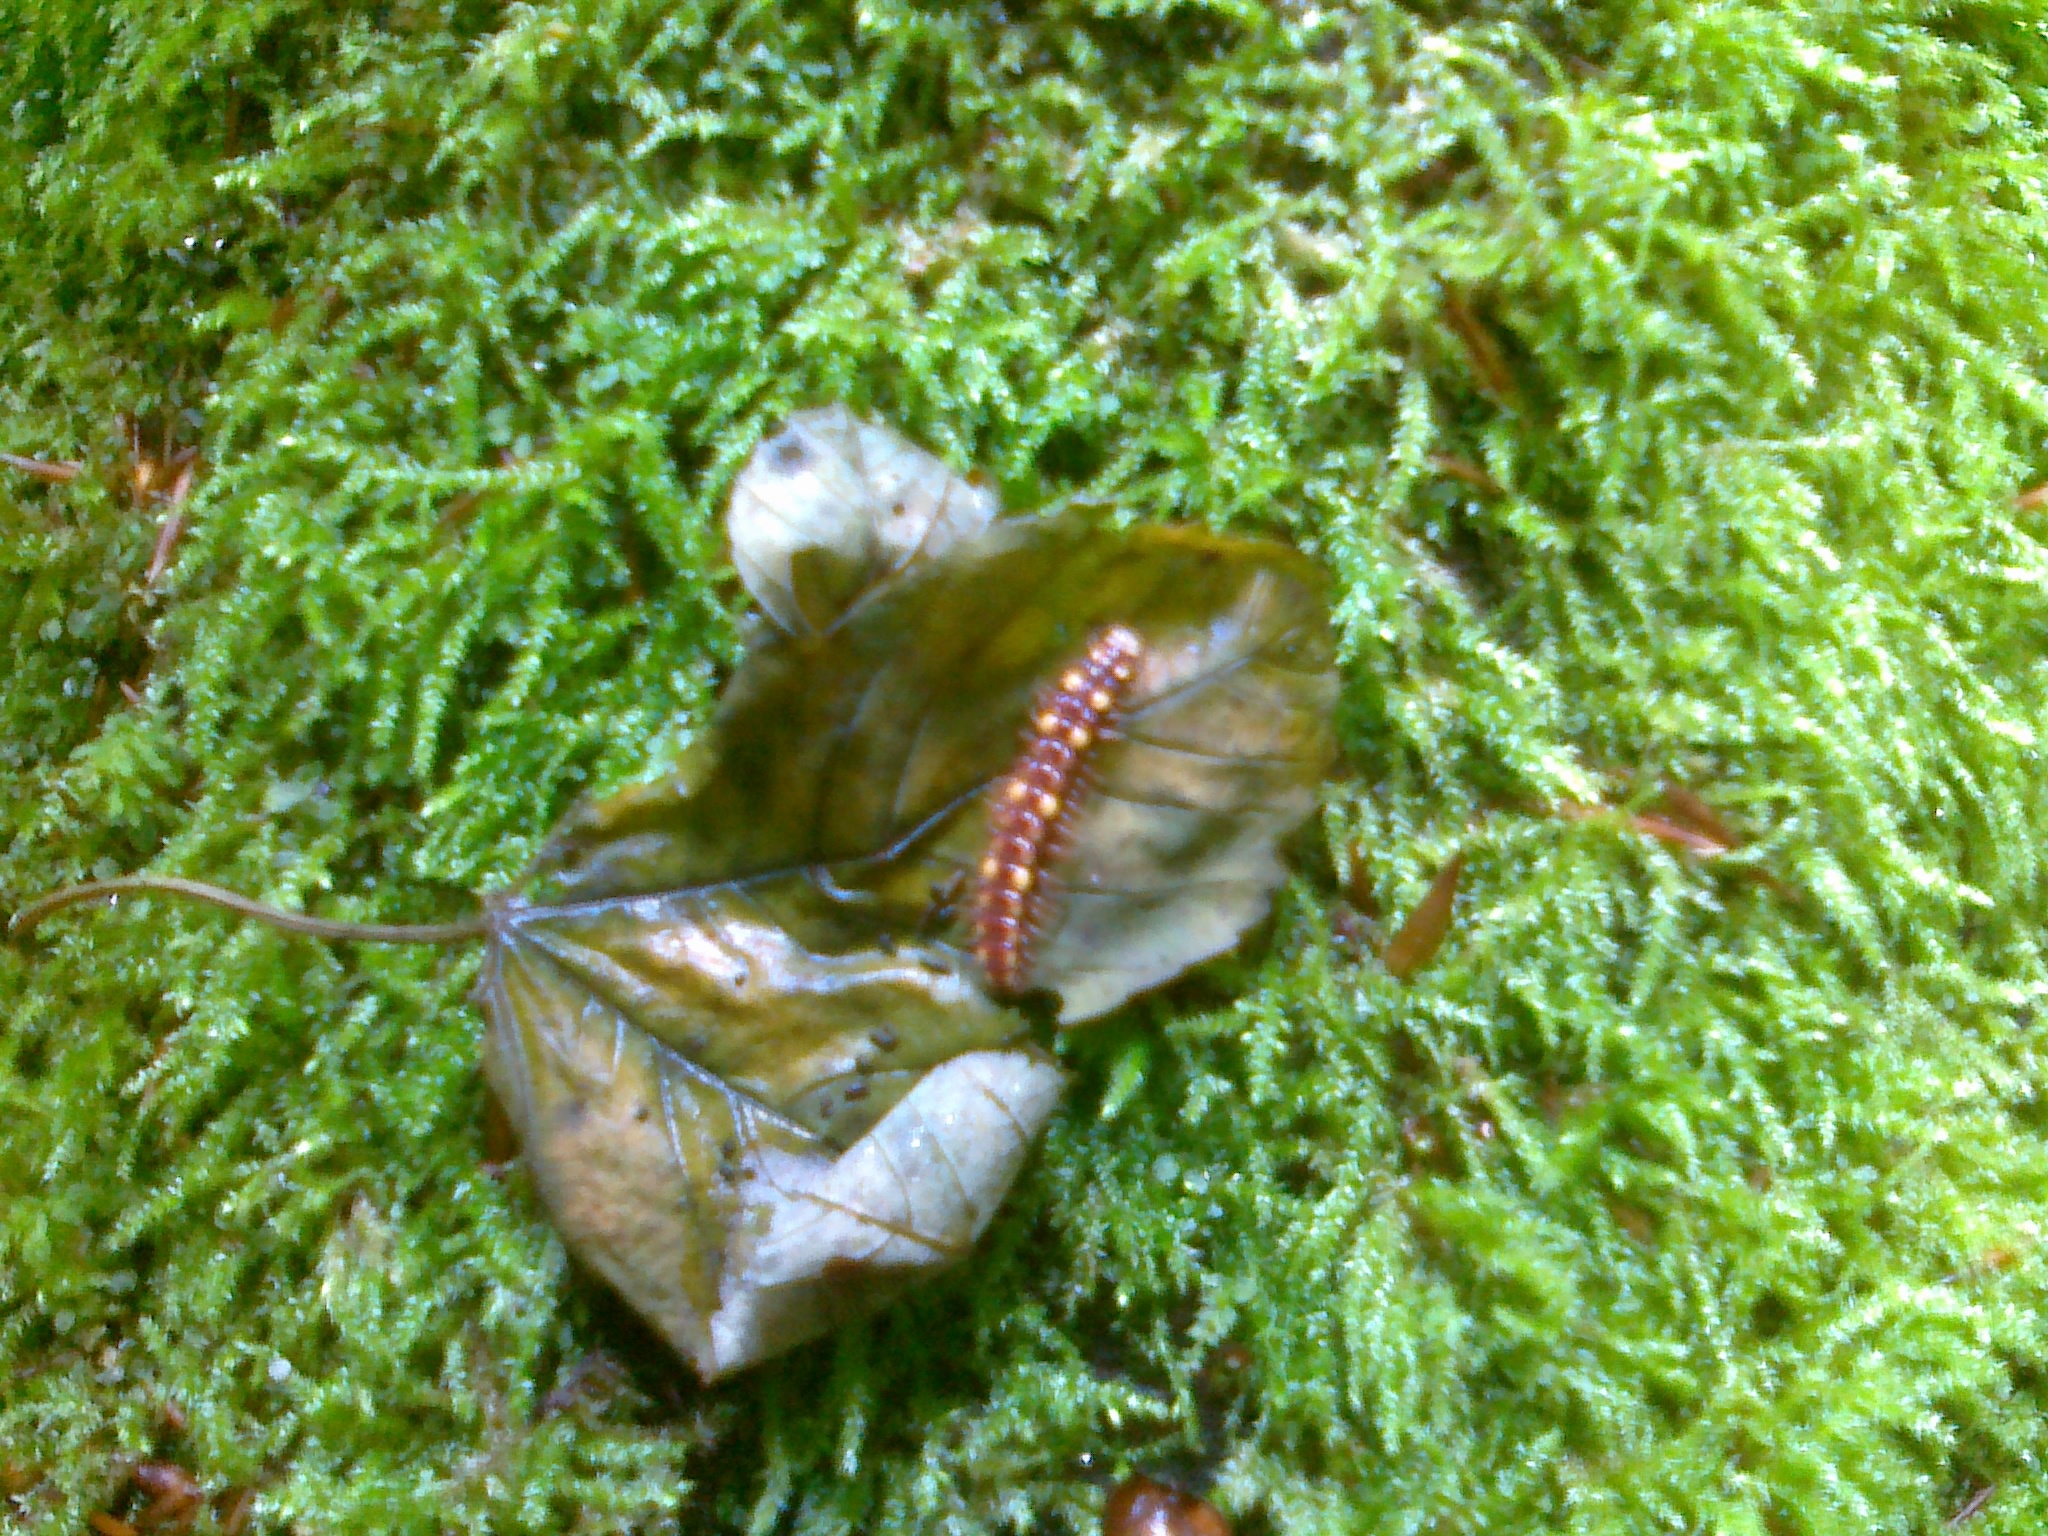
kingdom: Animalia
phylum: Arthropoda
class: Diplopoda
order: Polydesmida
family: Polydesmidae
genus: Polydesmus
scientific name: Polydesmus collaris
